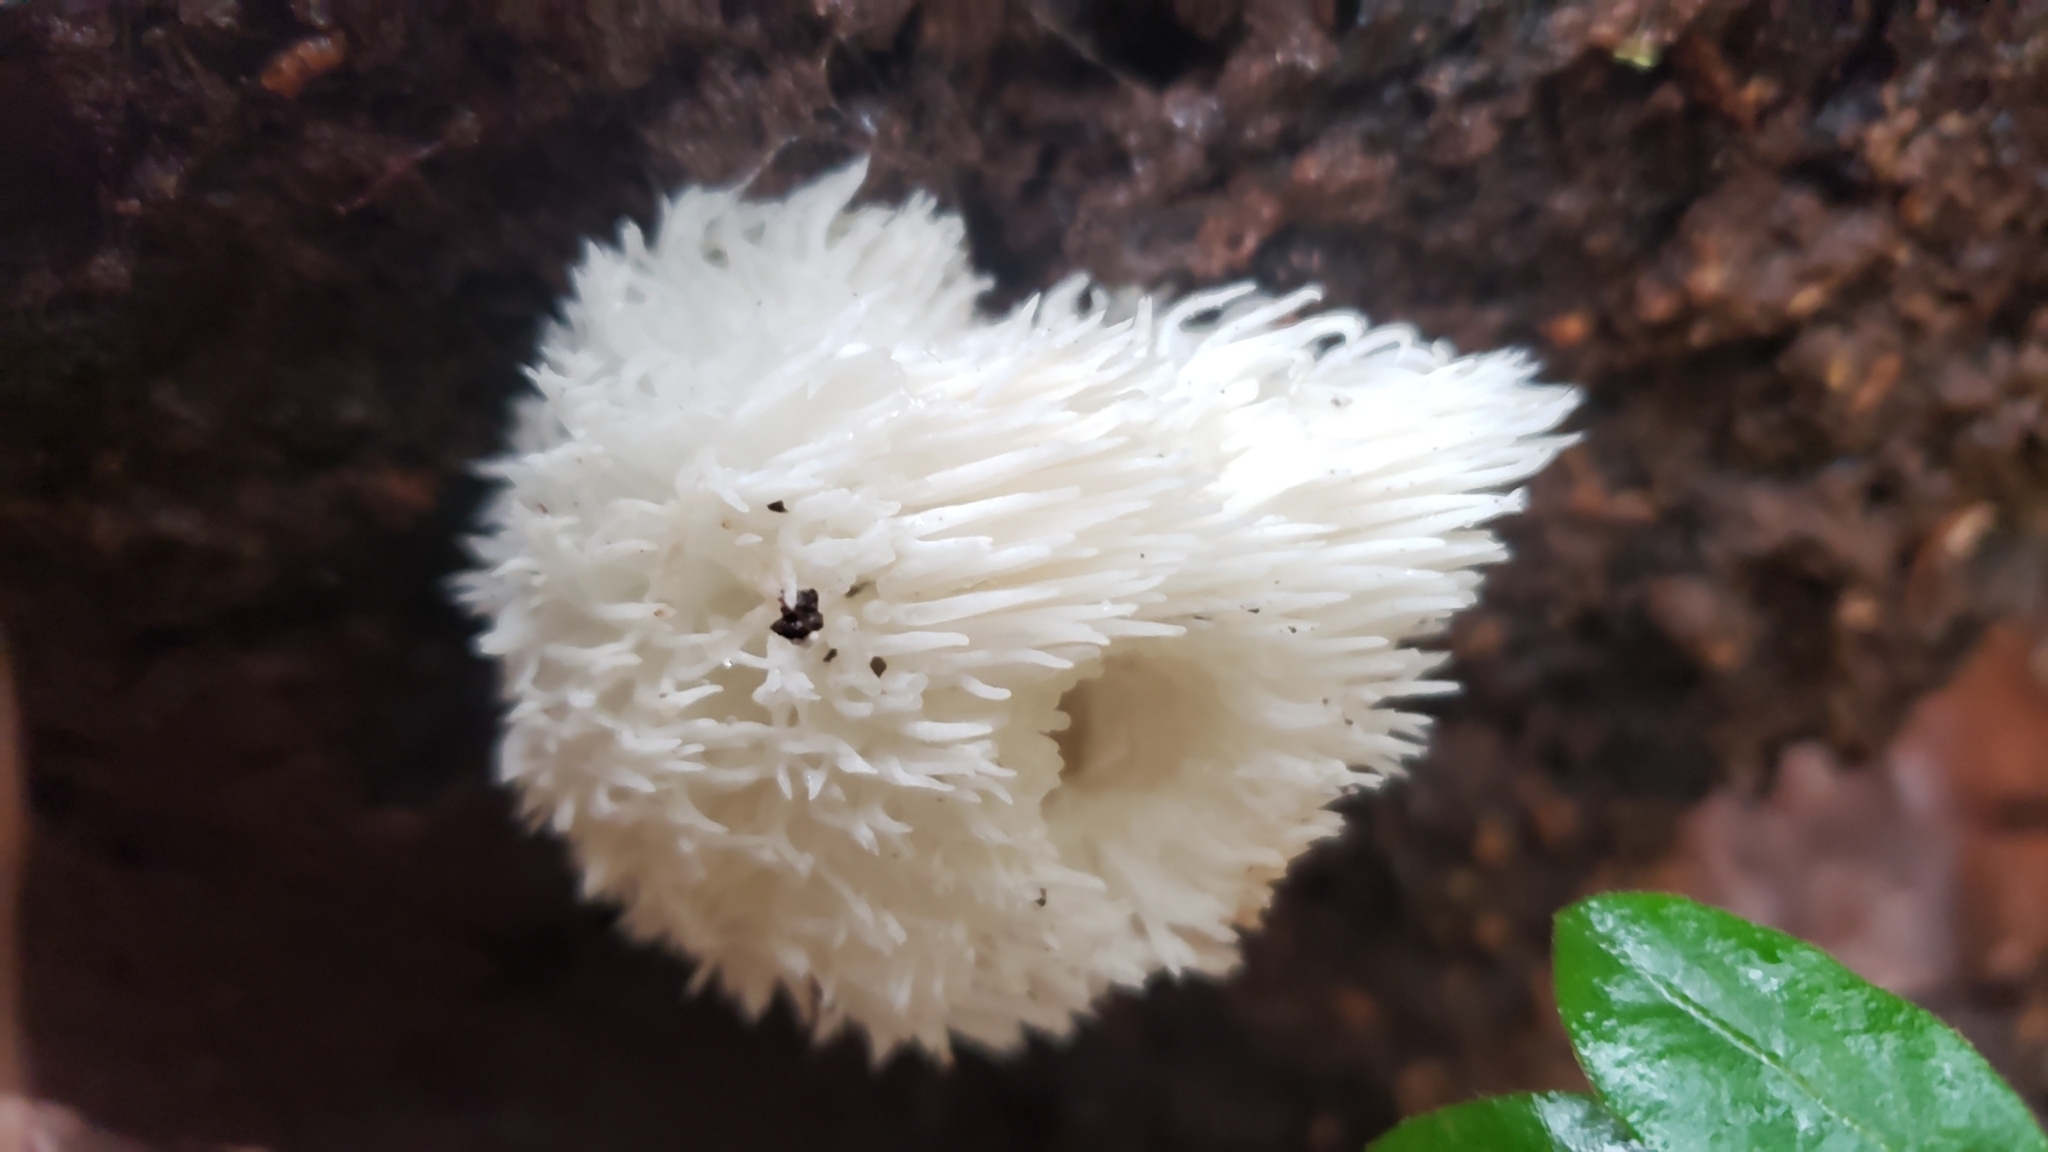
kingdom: Fungi
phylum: Basidiomycota
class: Agaricomycetes
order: Russulales
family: Hericiaceae
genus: Hericium
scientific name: Hericium erinaceus
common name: Bearded tooth
